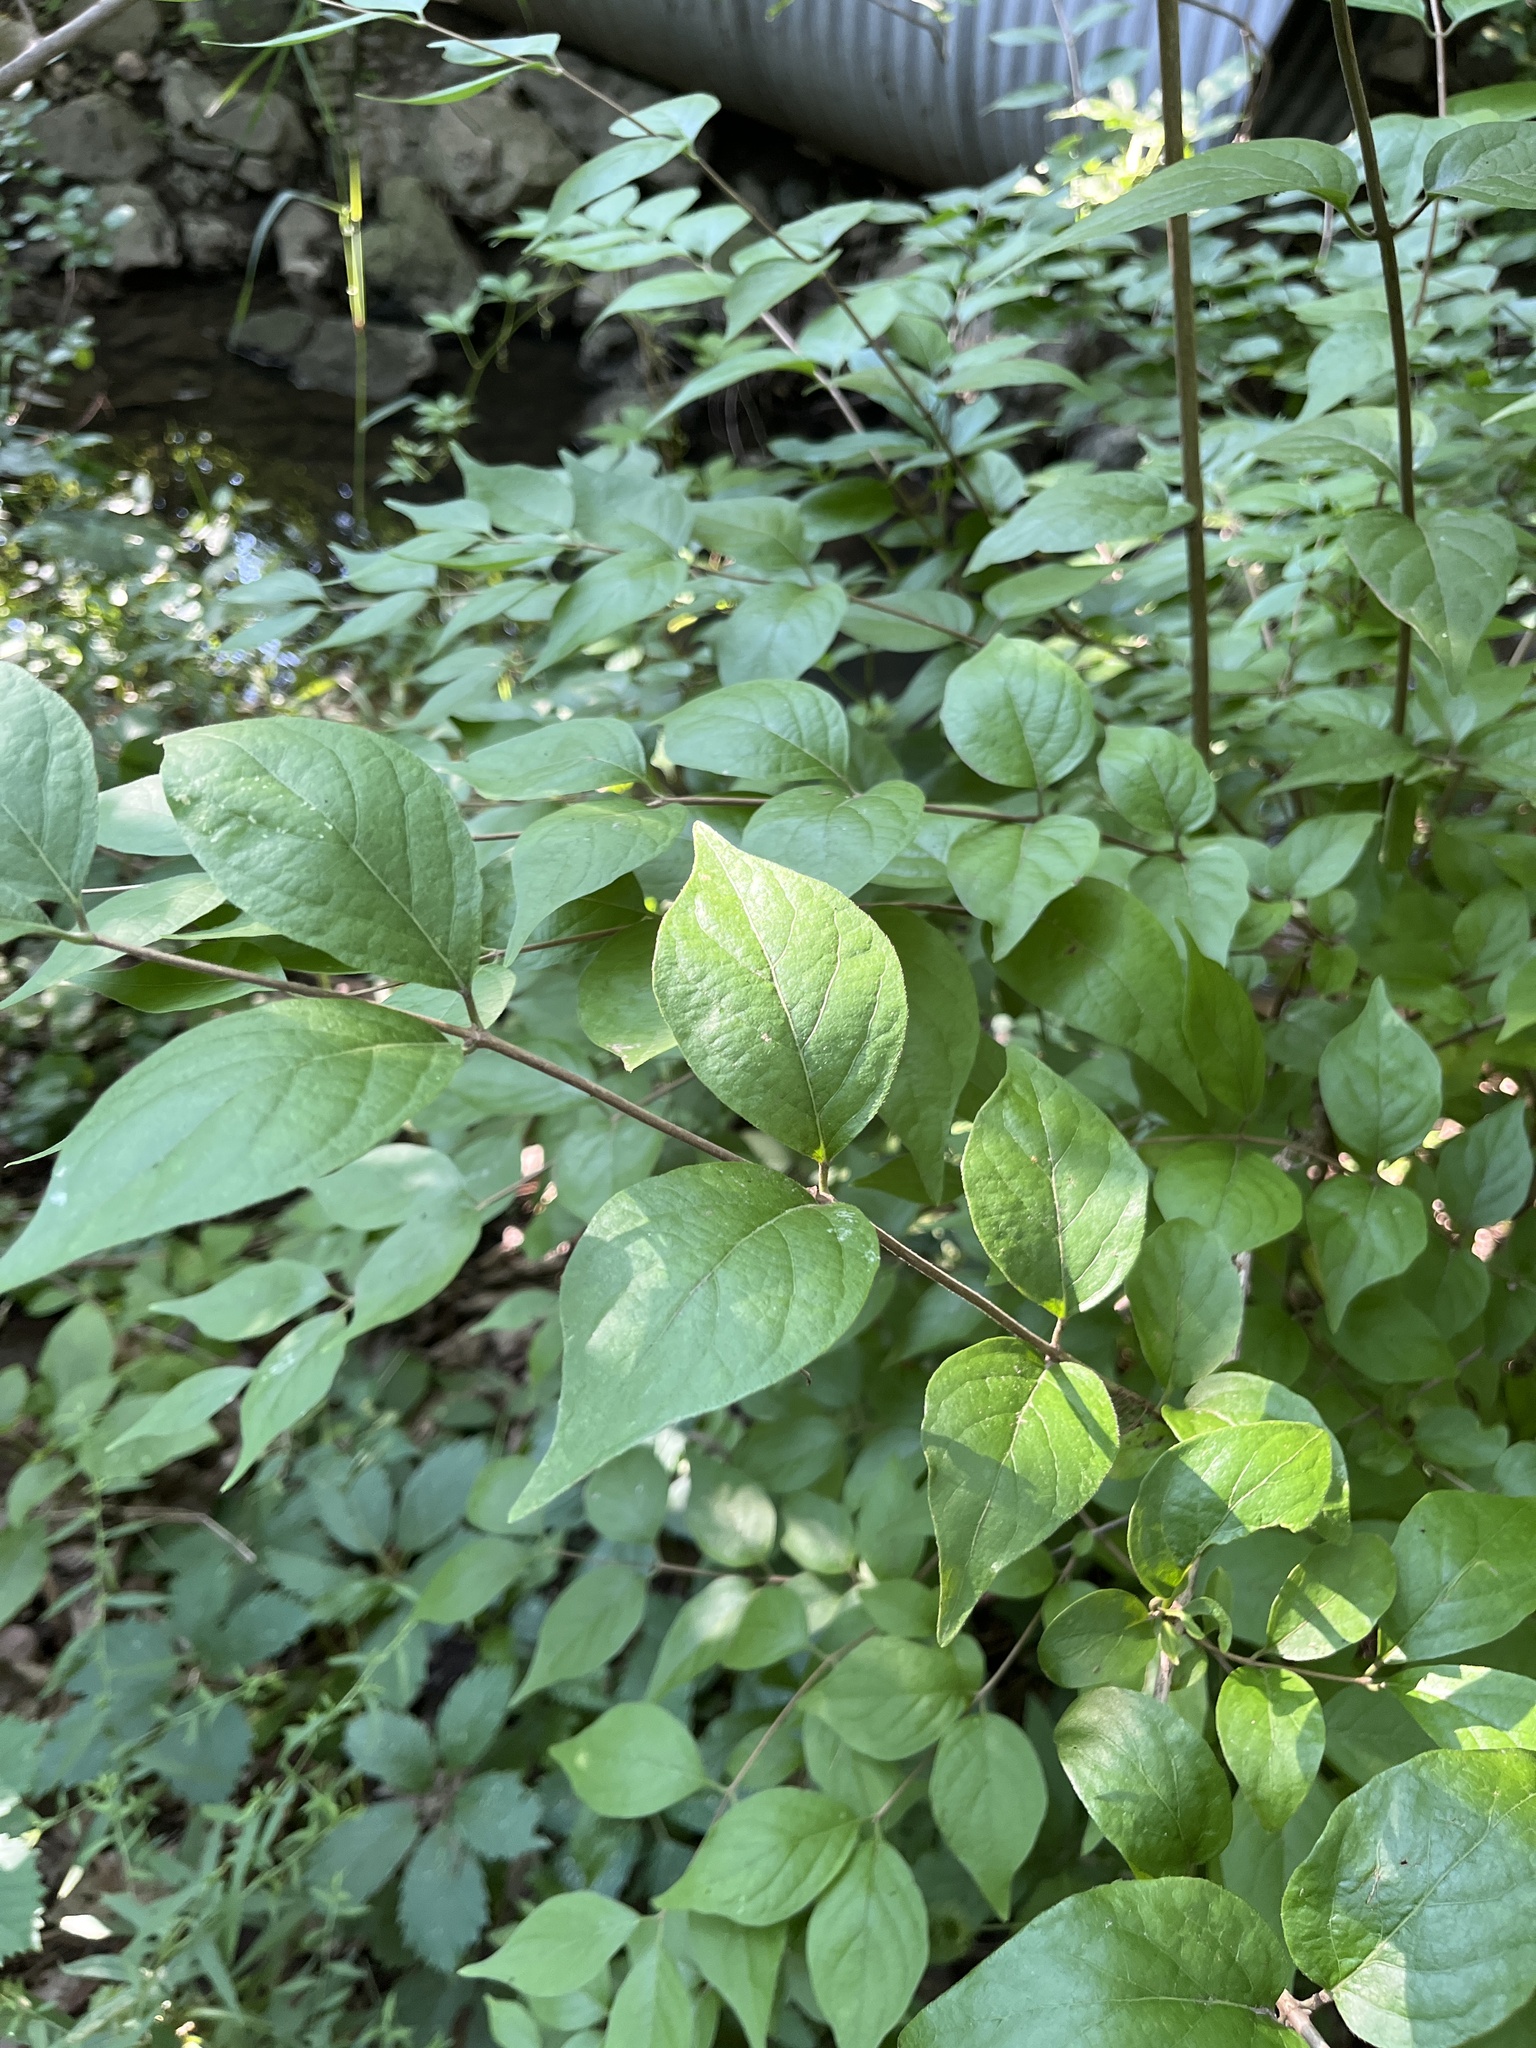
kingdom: Plantae
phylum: Tracheophyta
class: Magnoliopsida
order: Dipsacales
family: Caprifoliaceae
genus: Lonicera
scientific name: Lonicera maackii
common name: Amur honeysuckle
